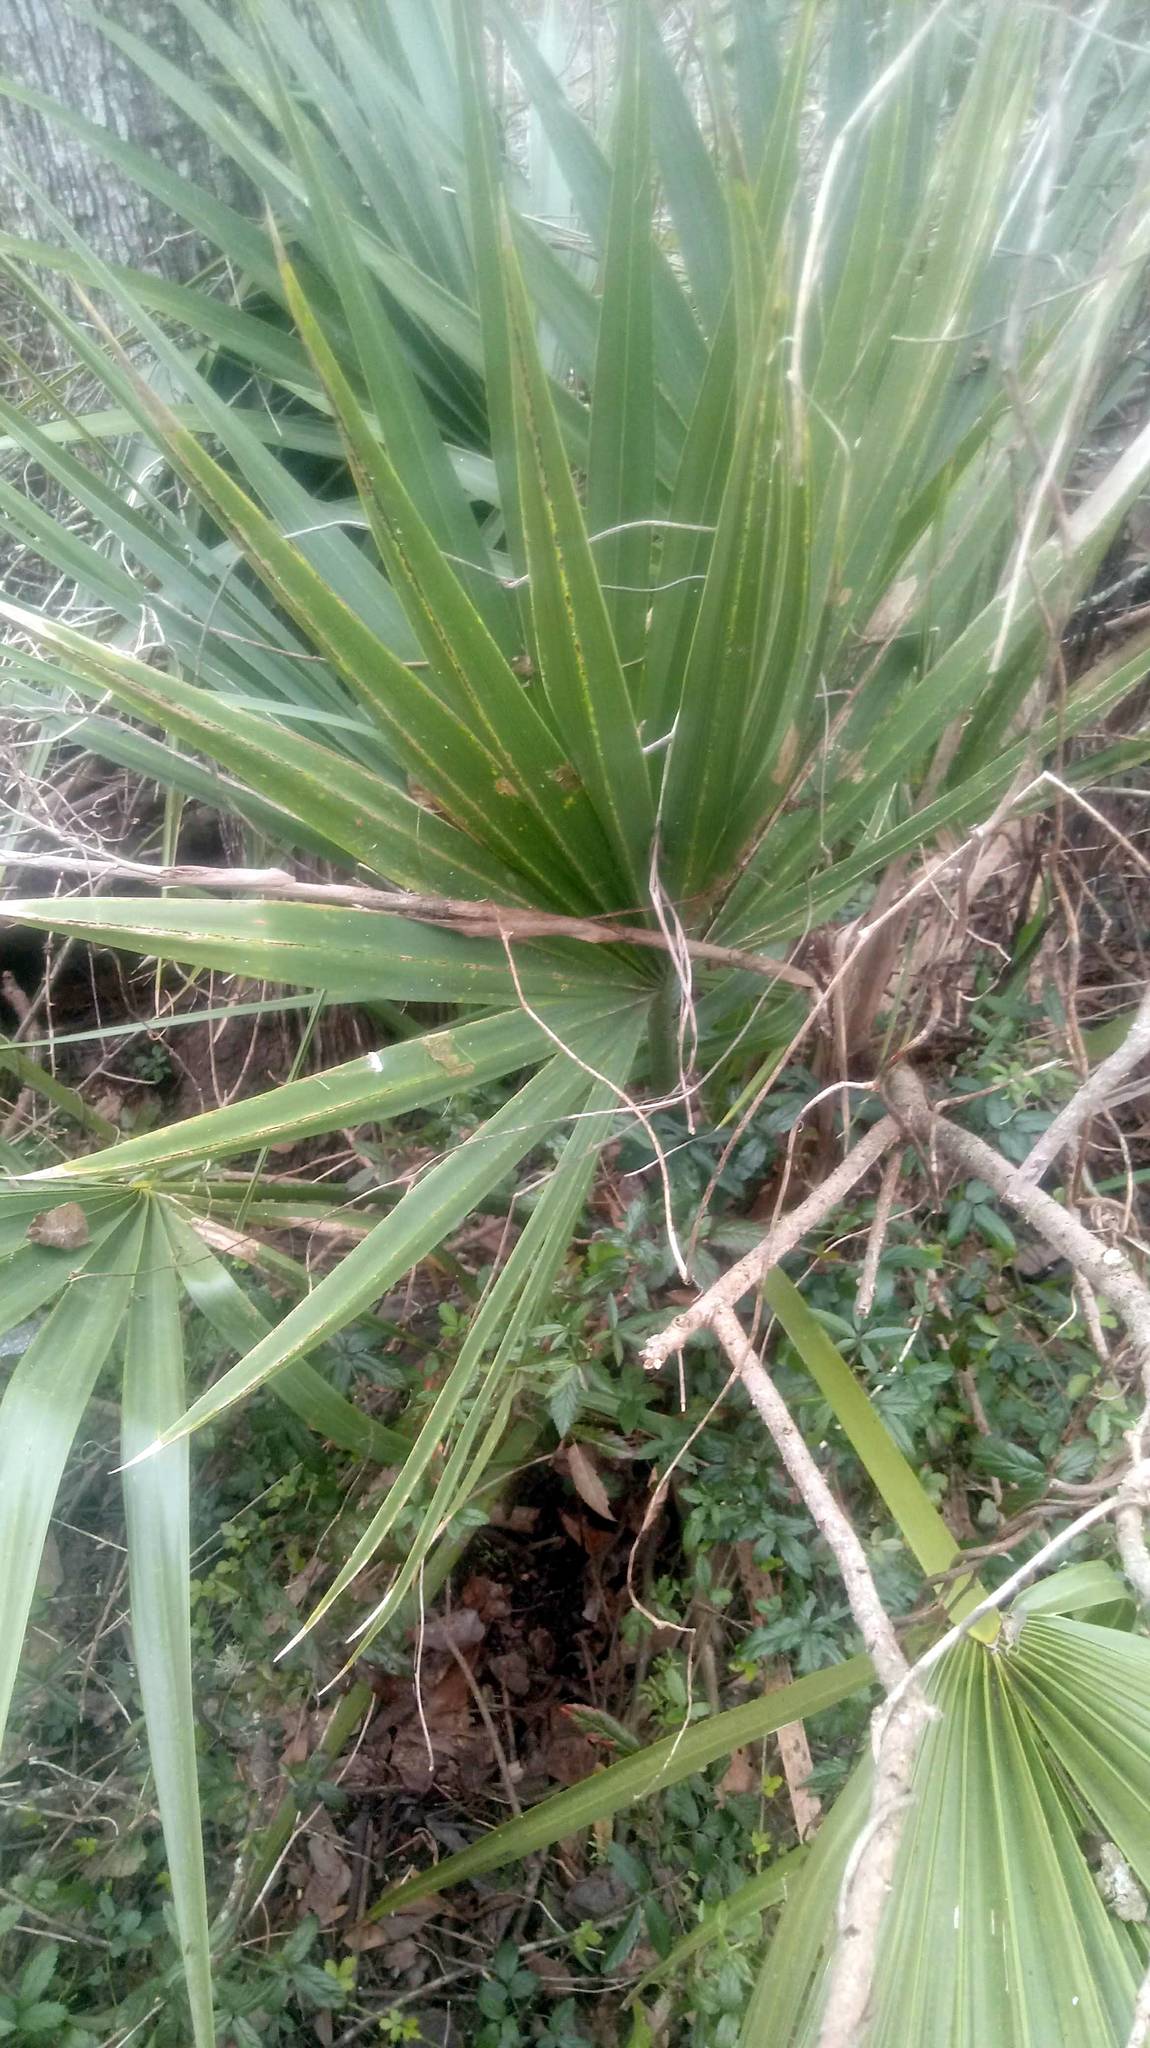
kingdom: Plantae
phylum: Tracheophyta
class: Liliopsida
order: Arecales
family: Arecaceae
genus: Sabal
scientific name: Sabal minor
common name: Dwarf palmetto
